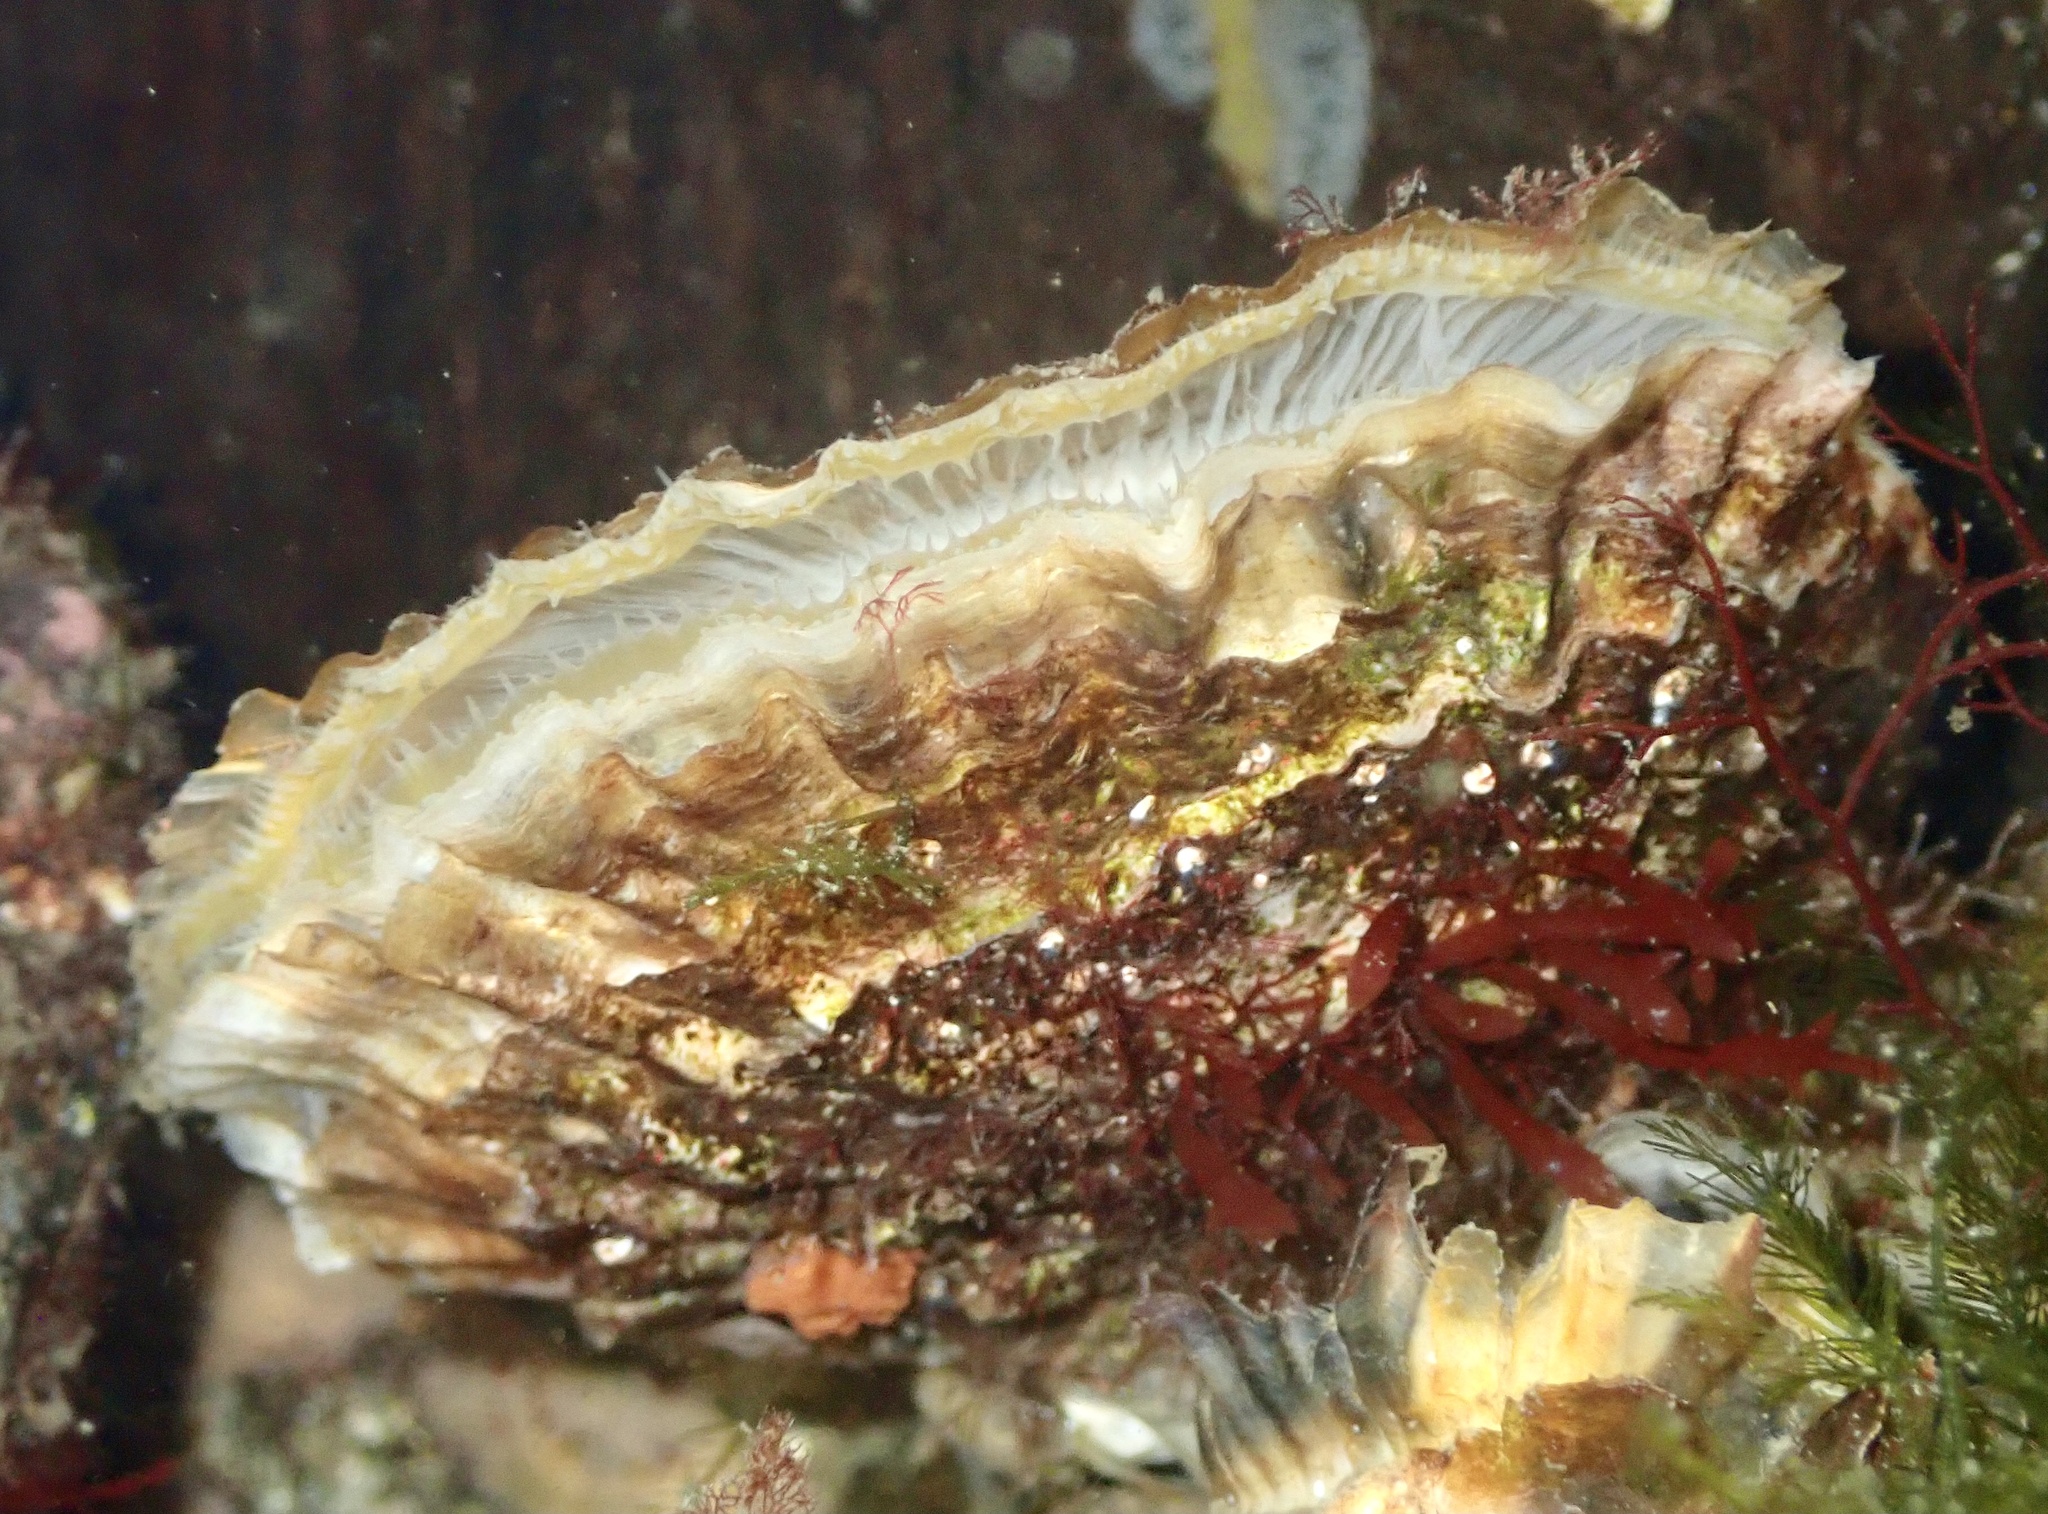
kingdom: Animalia
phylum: Mollusca
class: Bivalvia
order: Ostreida
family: Ostreidae
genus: Ostrea
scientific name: Ostrea edulis
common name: Flat oyster
